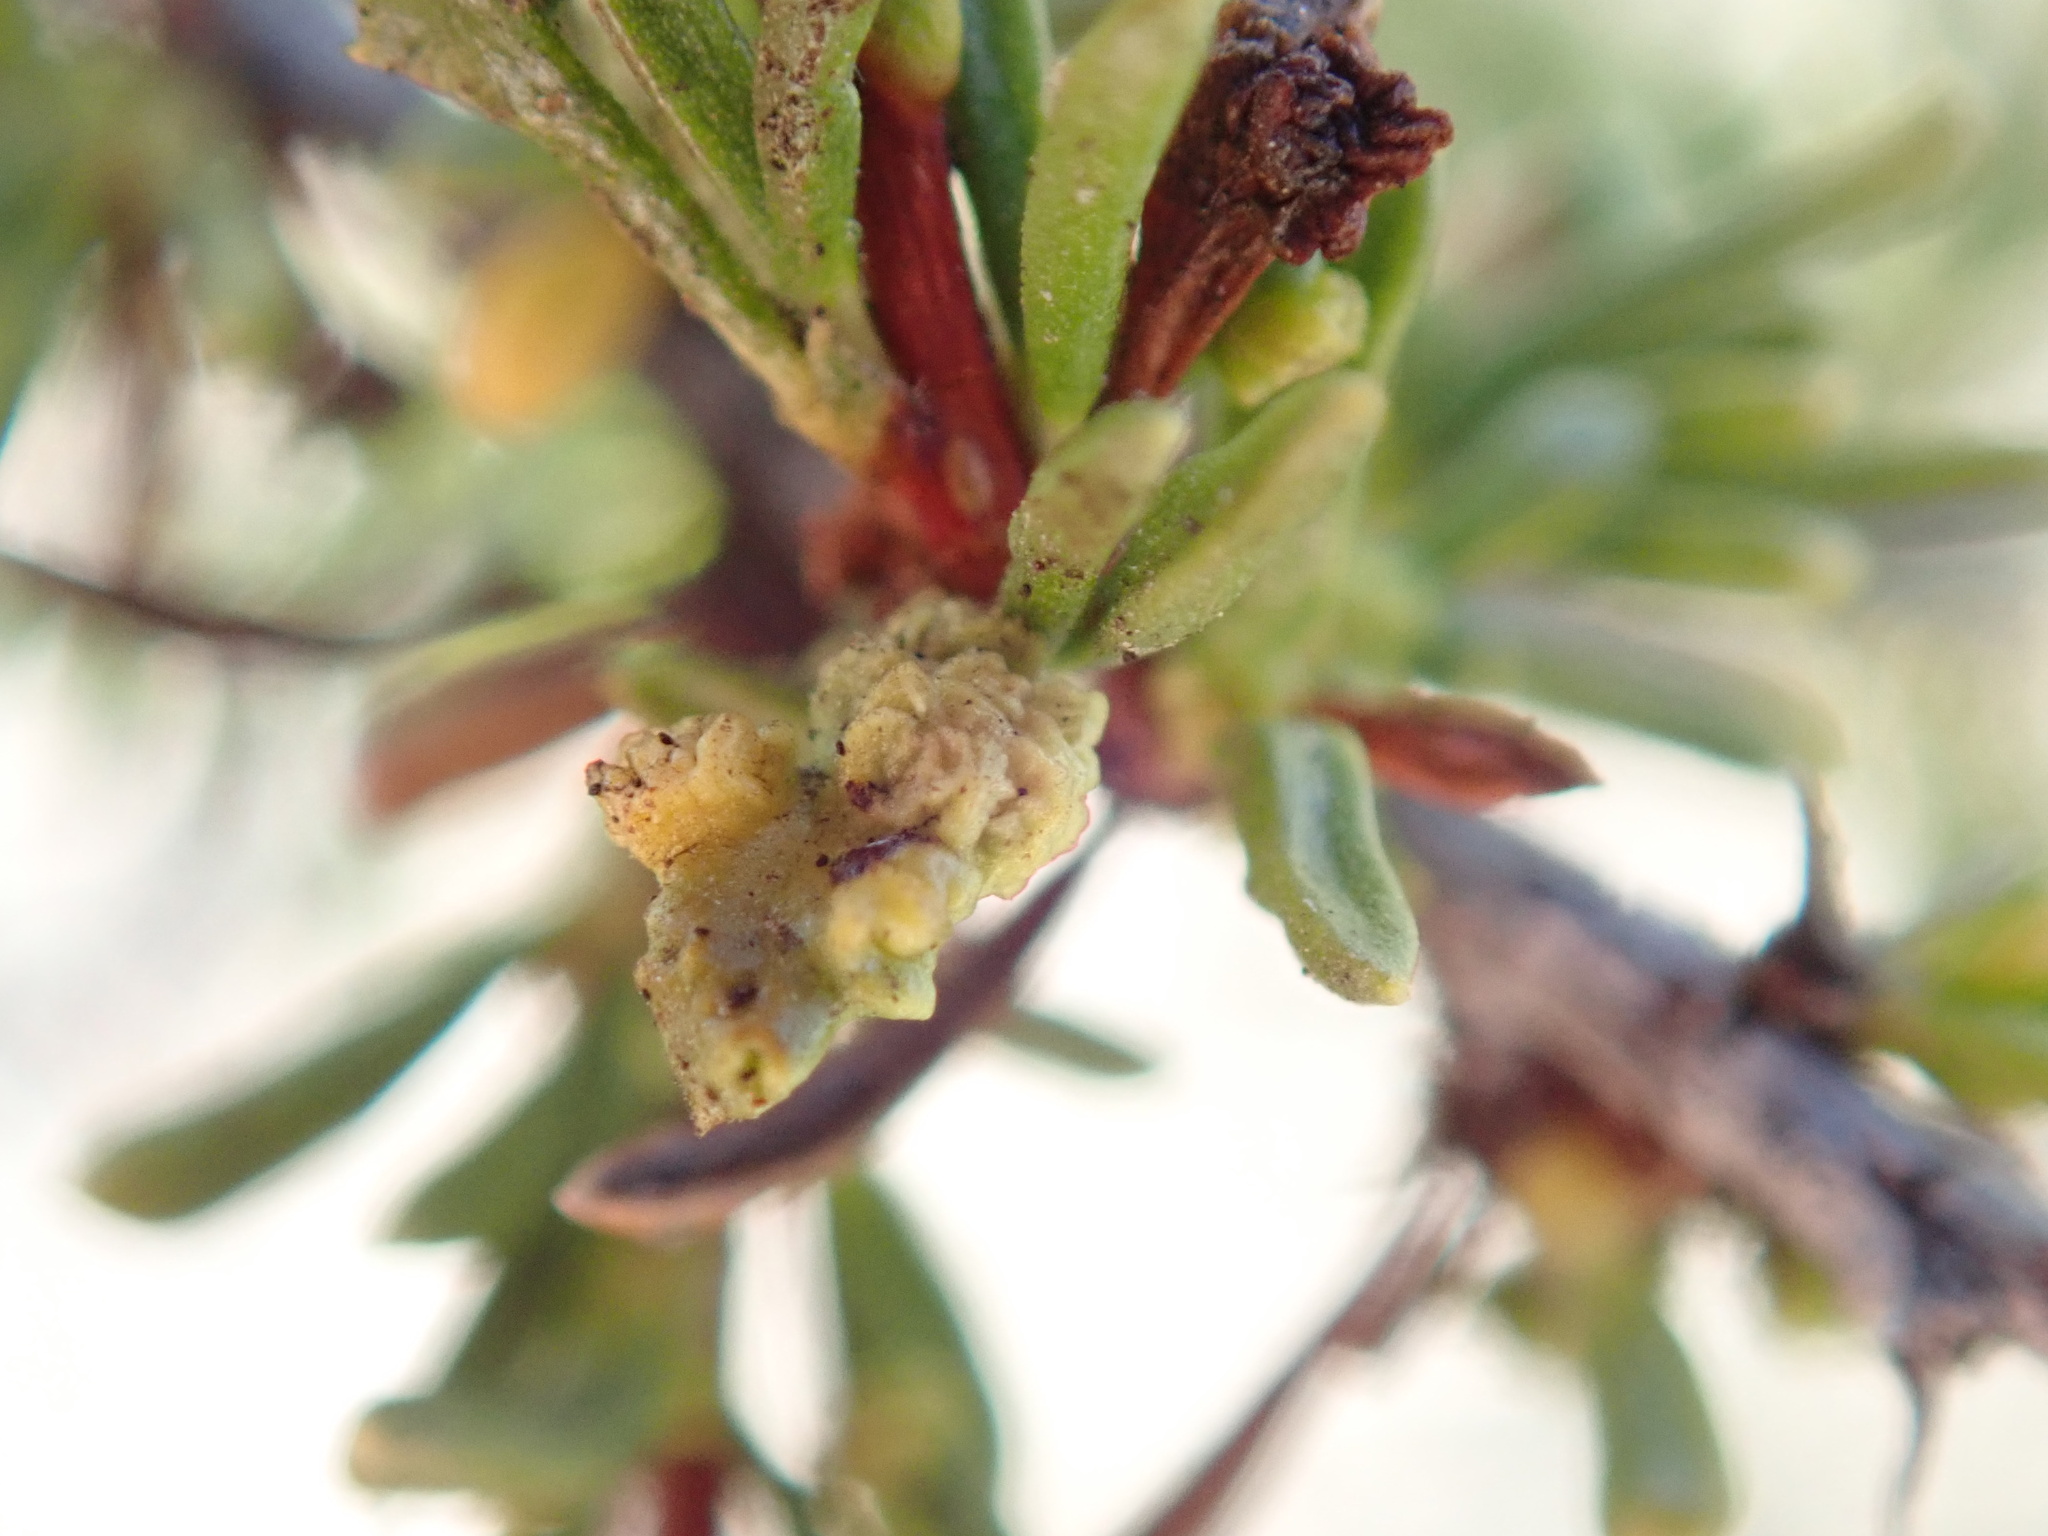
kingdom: Animalia
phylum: Arthropoda
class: Arachnida
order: Trombidiformes
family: Eriophyidae
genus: Eriophyes
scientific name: Eriophyes
